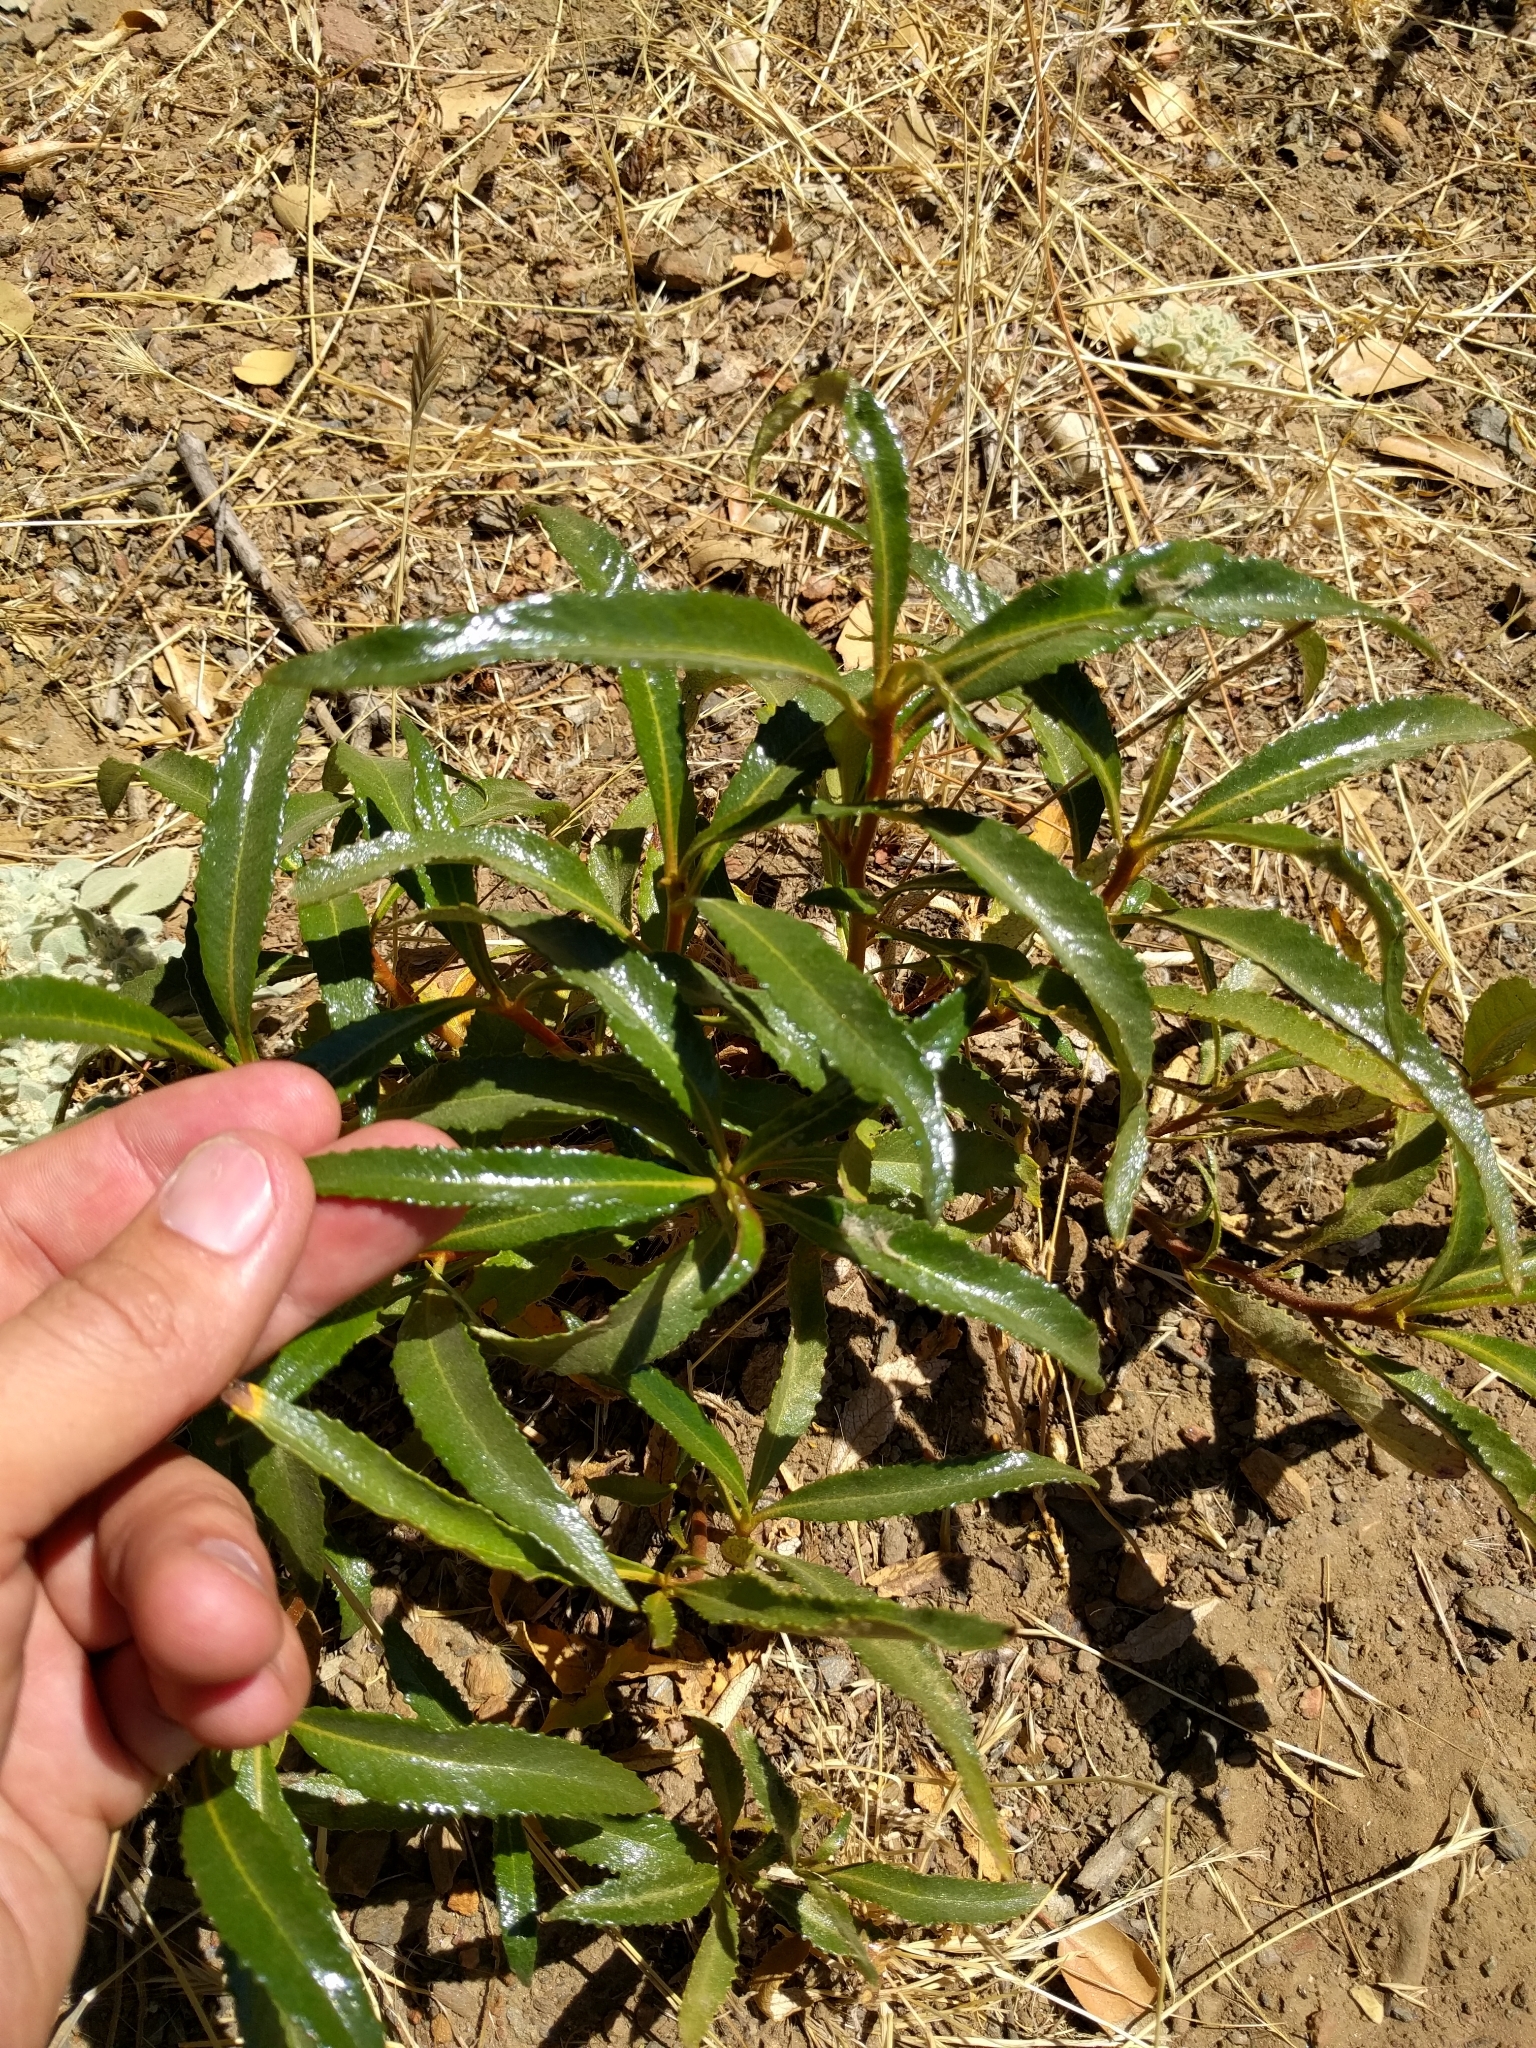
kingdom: Plantae
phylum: Tracheophyta
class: Magnoliopsida
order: Boraginales
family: Namaceae
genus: Eriodictyon
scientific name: Eriodictyon californicum
